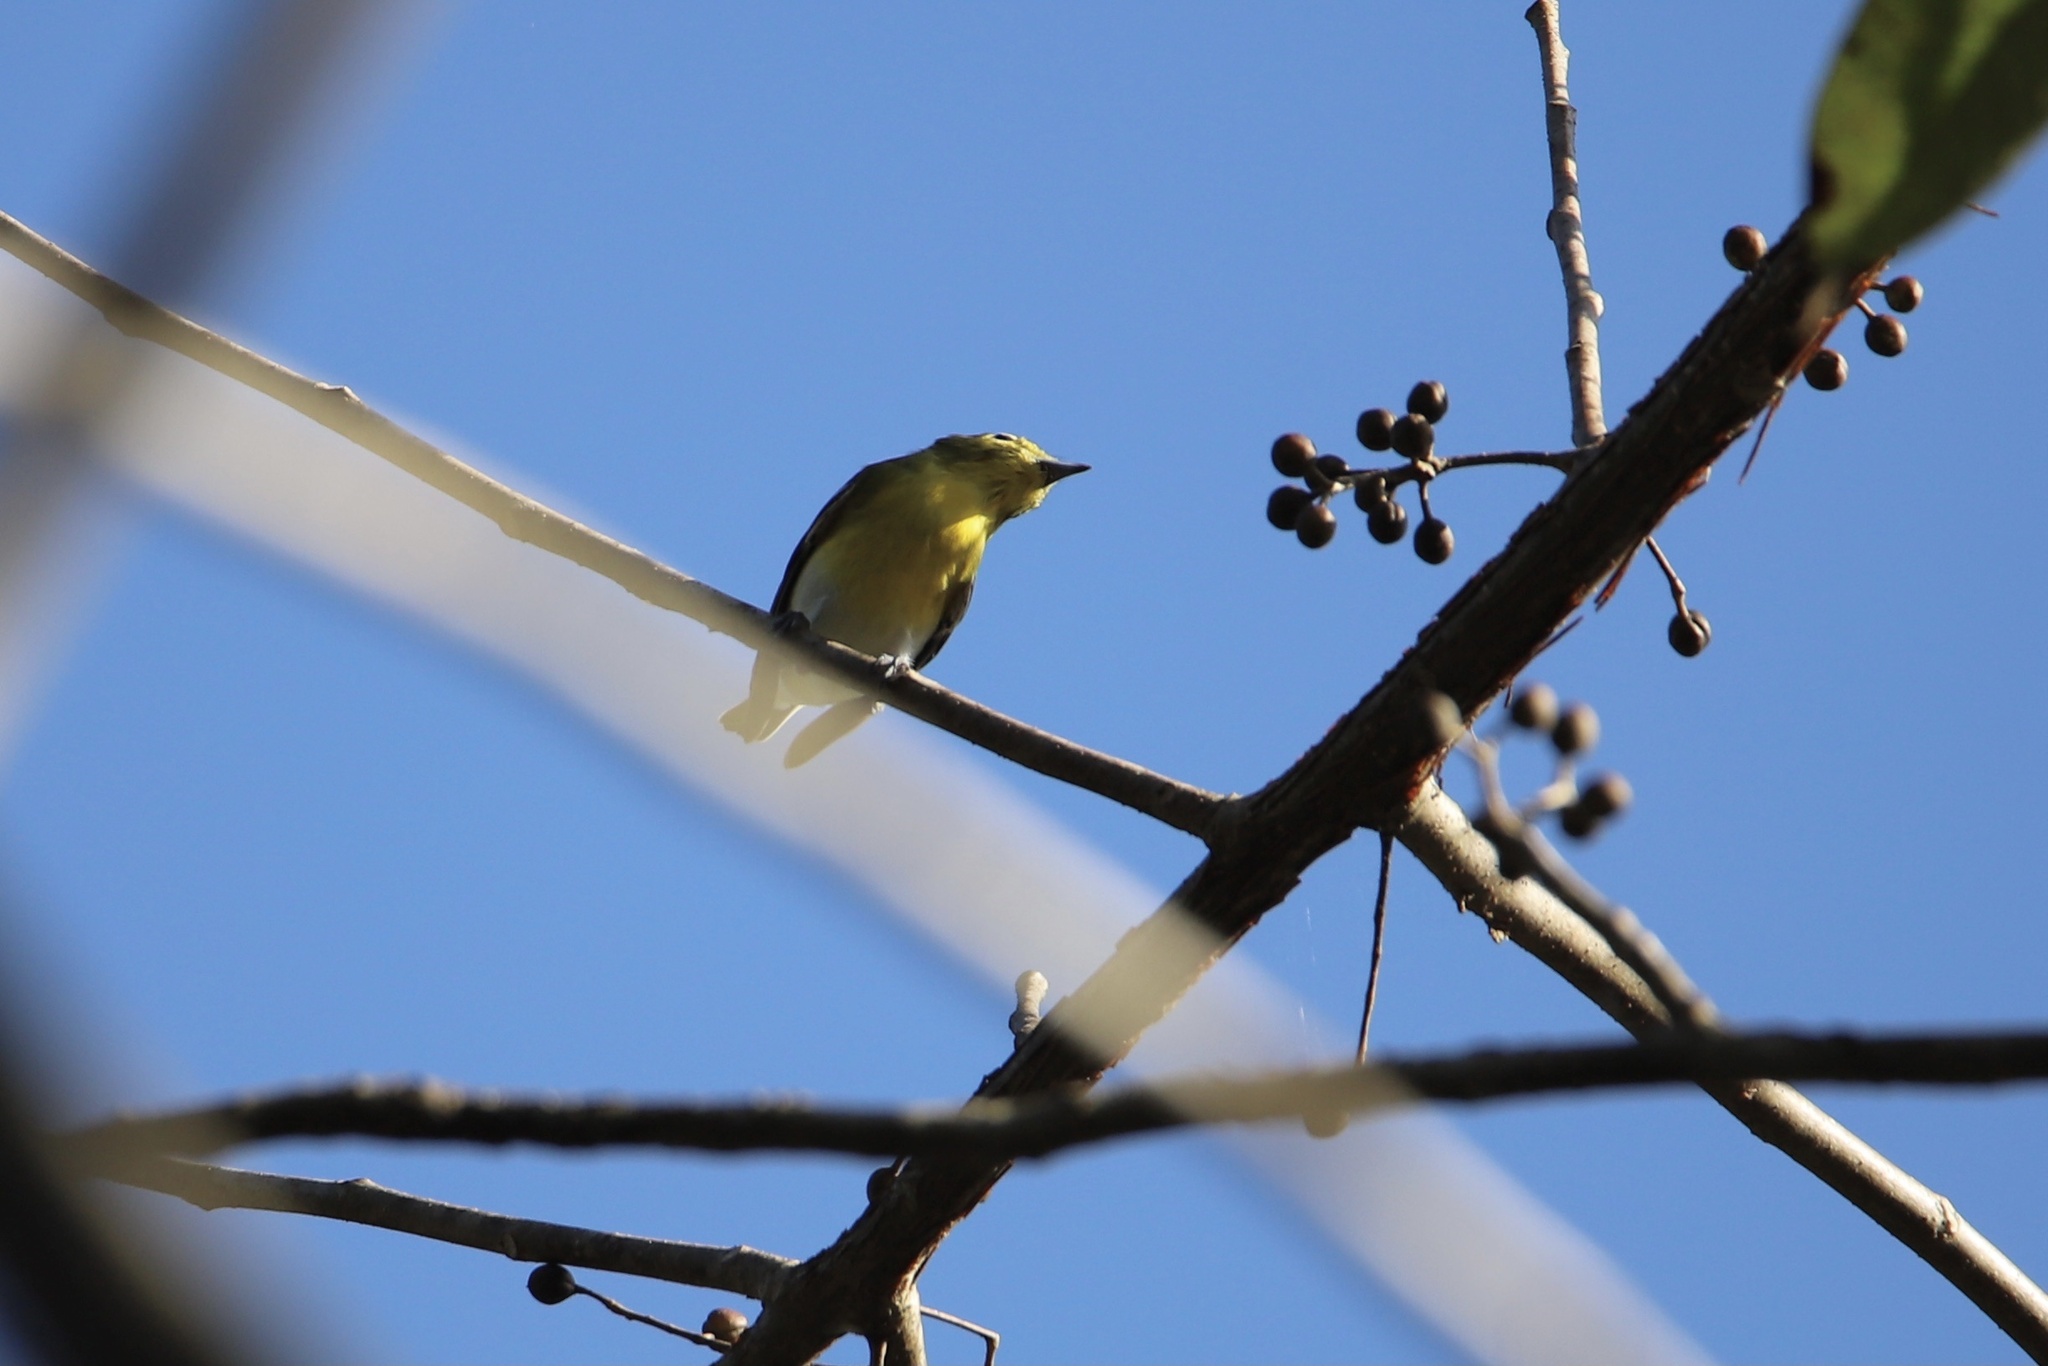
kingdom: Animalia
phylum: Chordata
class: Aves
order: Passeriformes
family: Vireonidae
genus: Vireo
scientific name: Vireo flavifrons
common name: Yellow-throated vireo
